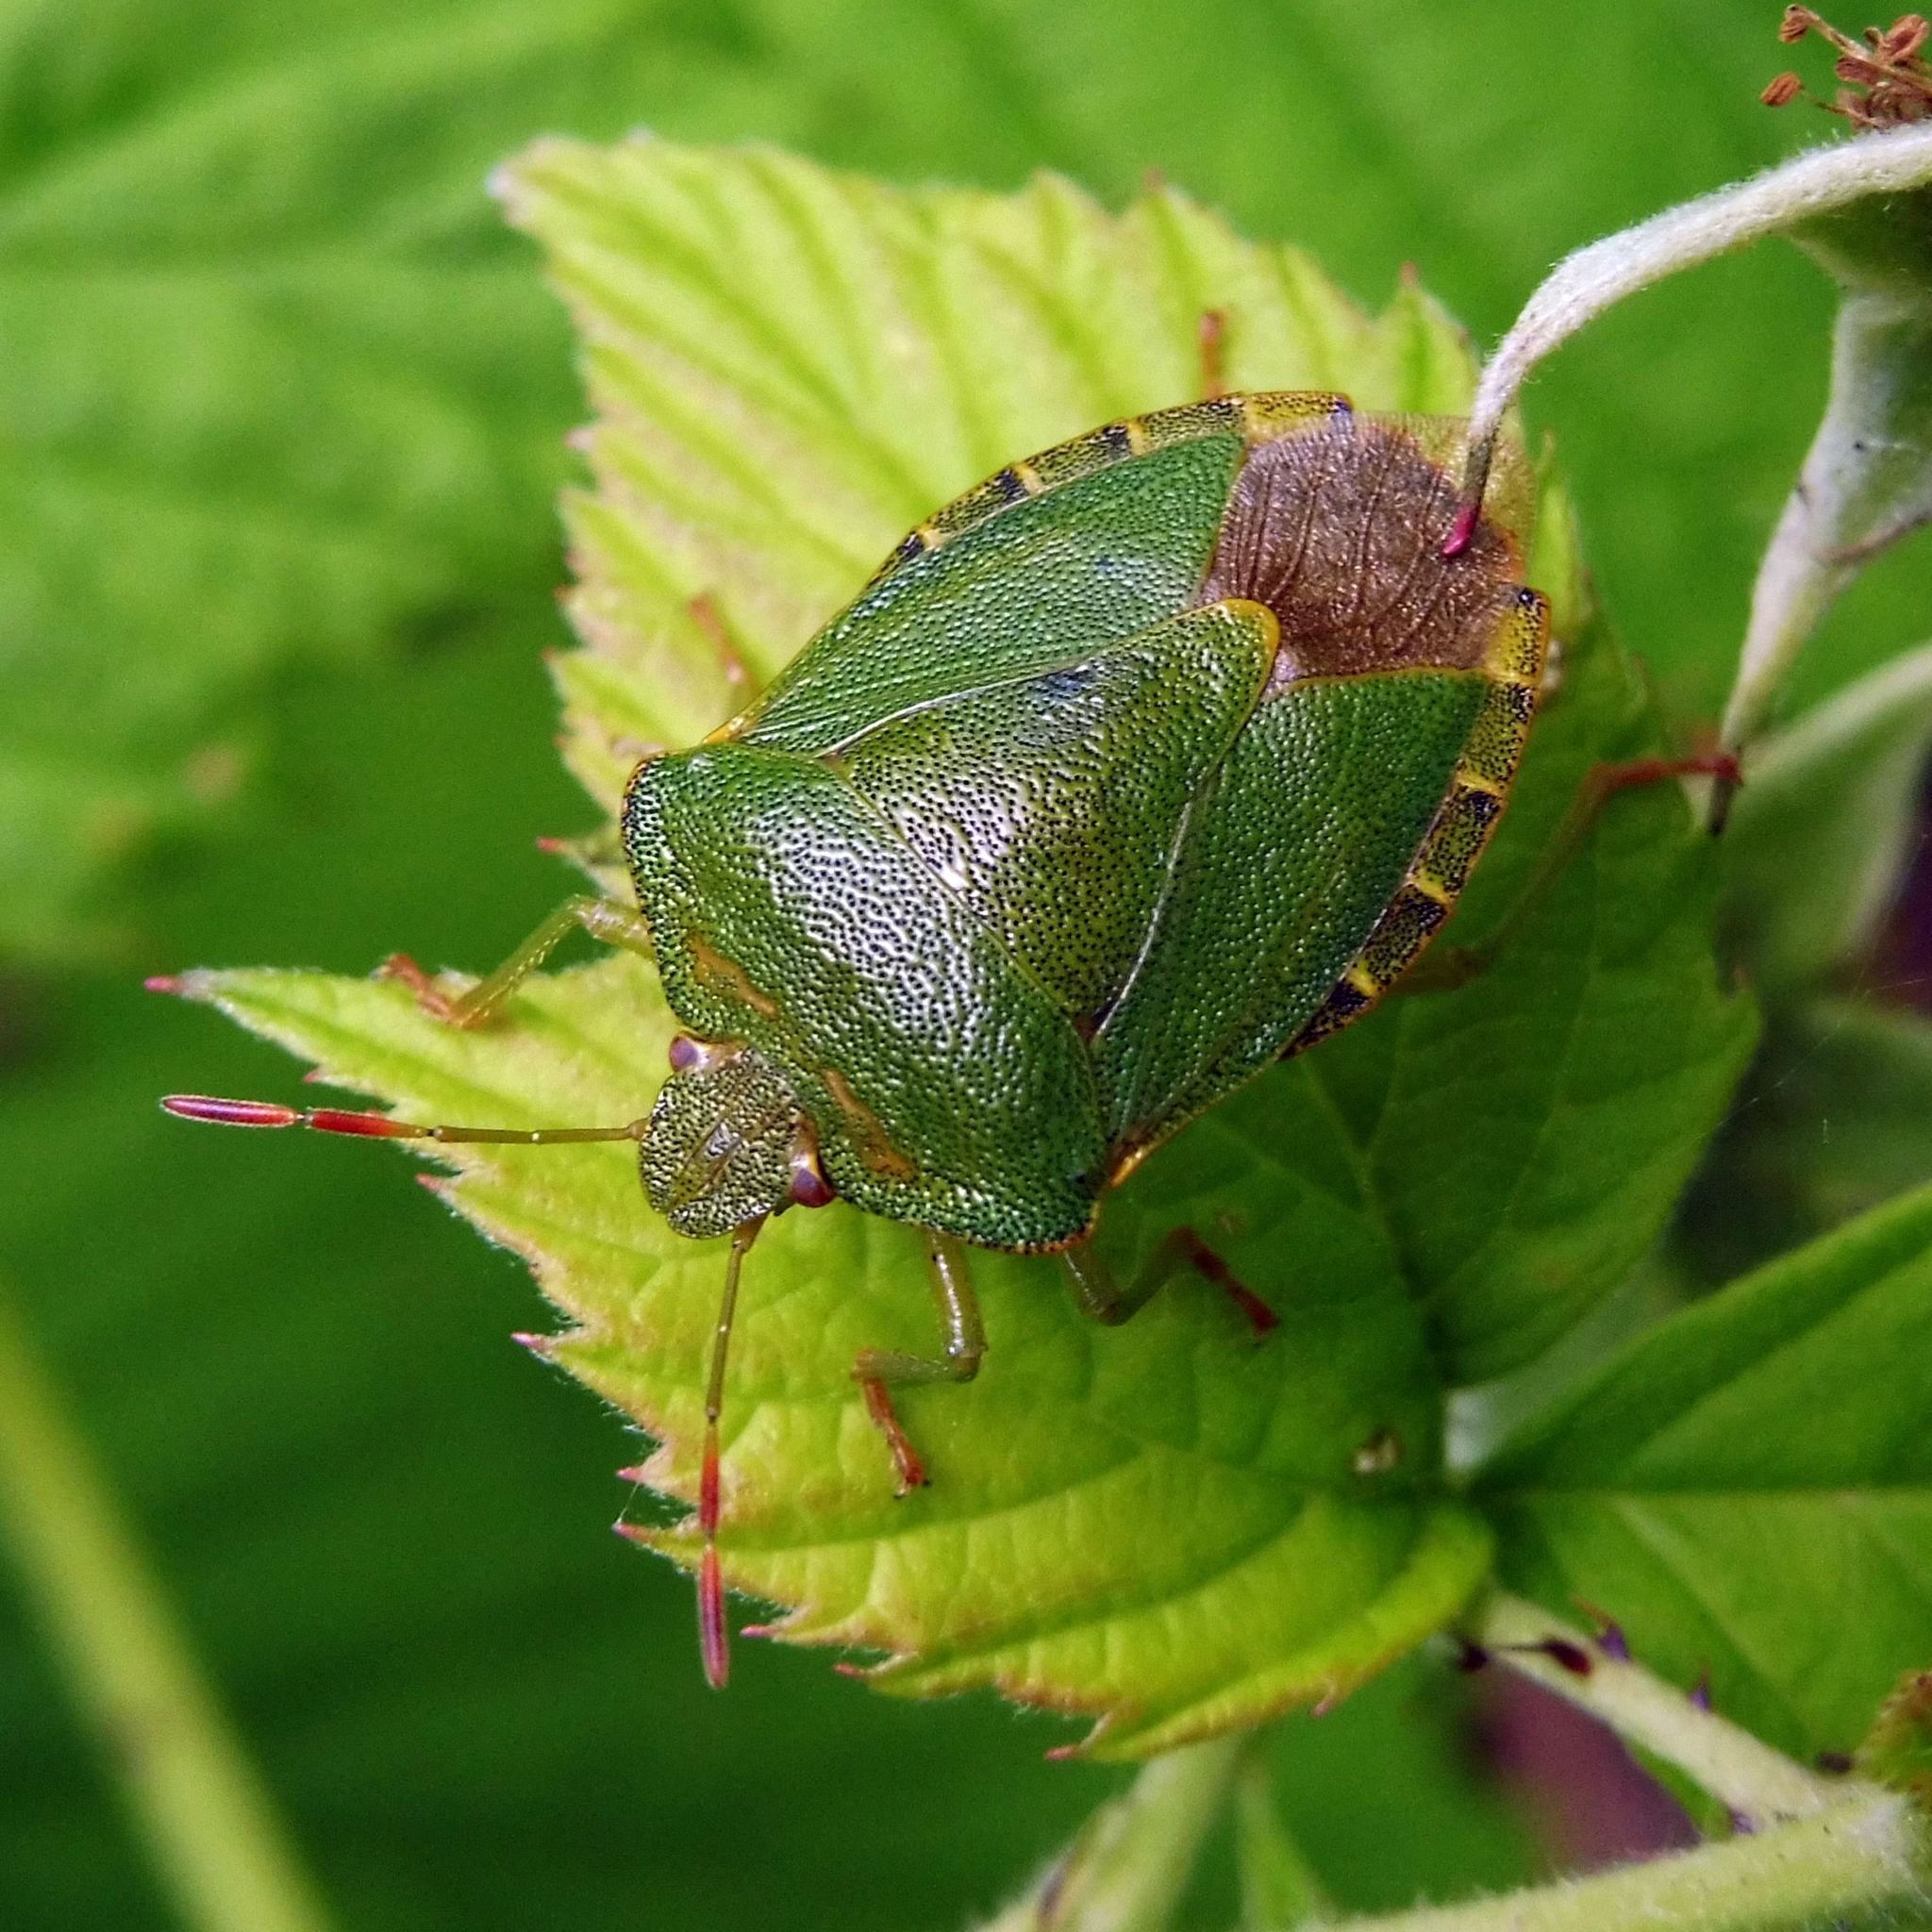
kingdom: Animalia
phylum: Arthropoda
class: Insecta
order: Hemiptera
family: Pentatomidae
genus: Palomena
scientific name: Palomena prasina
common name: Green shieldbug
